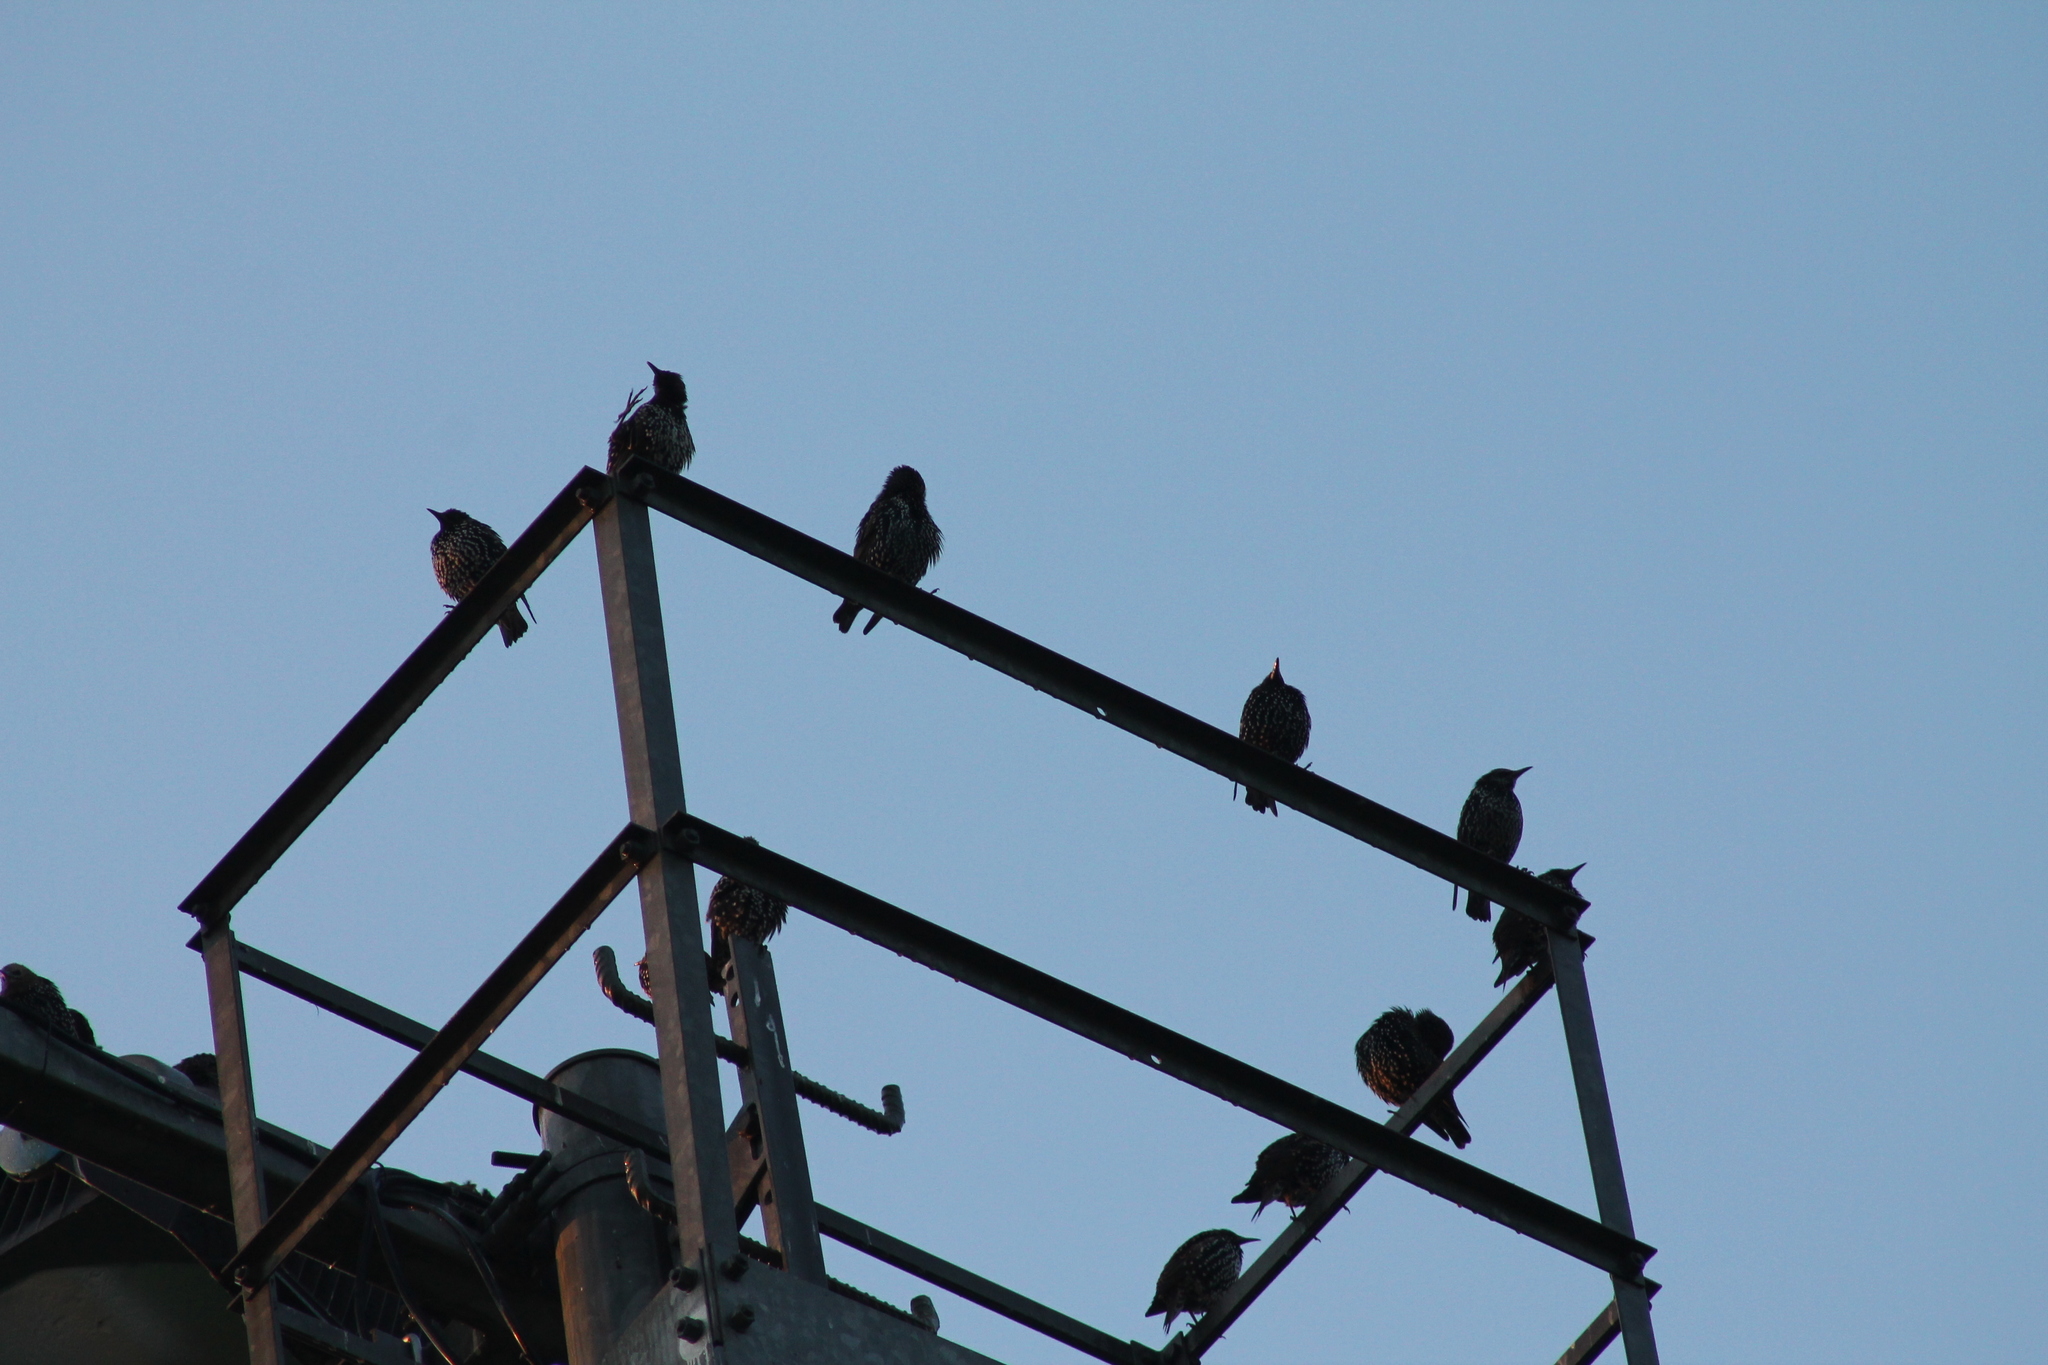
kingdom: Animalia
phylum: Chordata
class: Aves
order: Passeriformes
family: Sturnidae
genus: Sturnus
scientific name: Sturnus vulgaris
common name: Common starling
